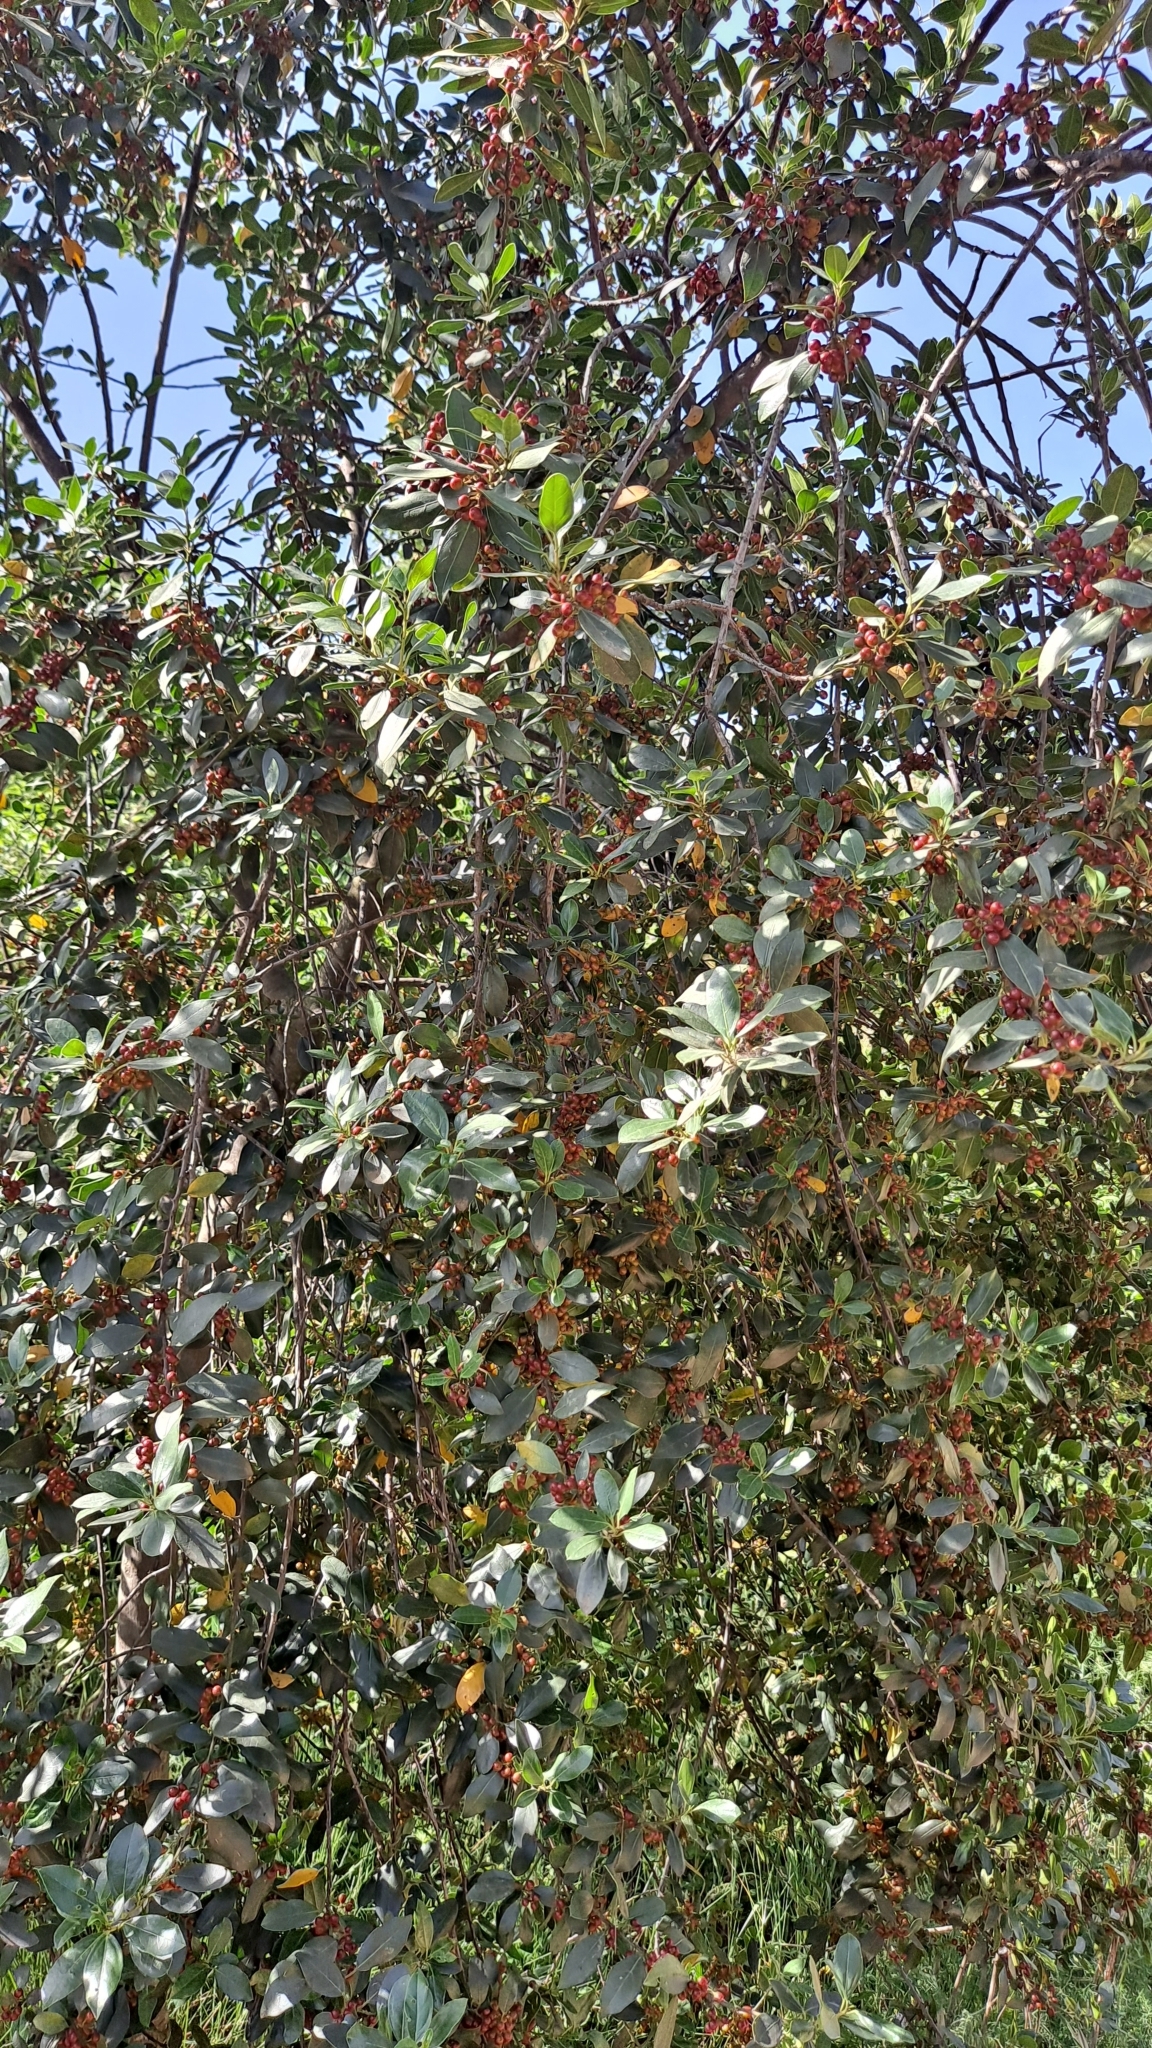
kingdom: Plantae
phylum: Tracheophyta
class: Magnoliopsida
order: Rosales
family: Rhamnaceae
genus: Rhamnus
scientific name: Rhamnus alaternus
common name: Mediterranean buckthorn
